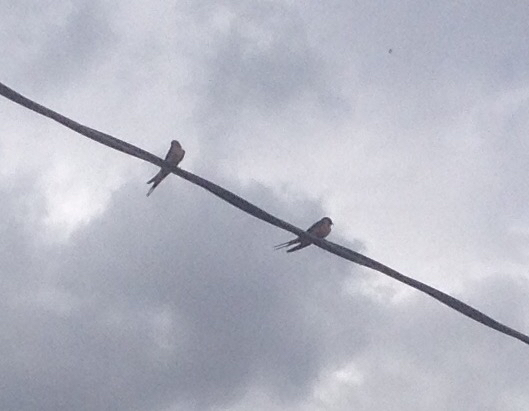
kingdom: Animalia
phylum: Chordata
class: Aves
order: Passeriformes
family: Hirundinidae
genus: Hirundo
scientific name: Hirundo rustica
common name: Barn swallow
